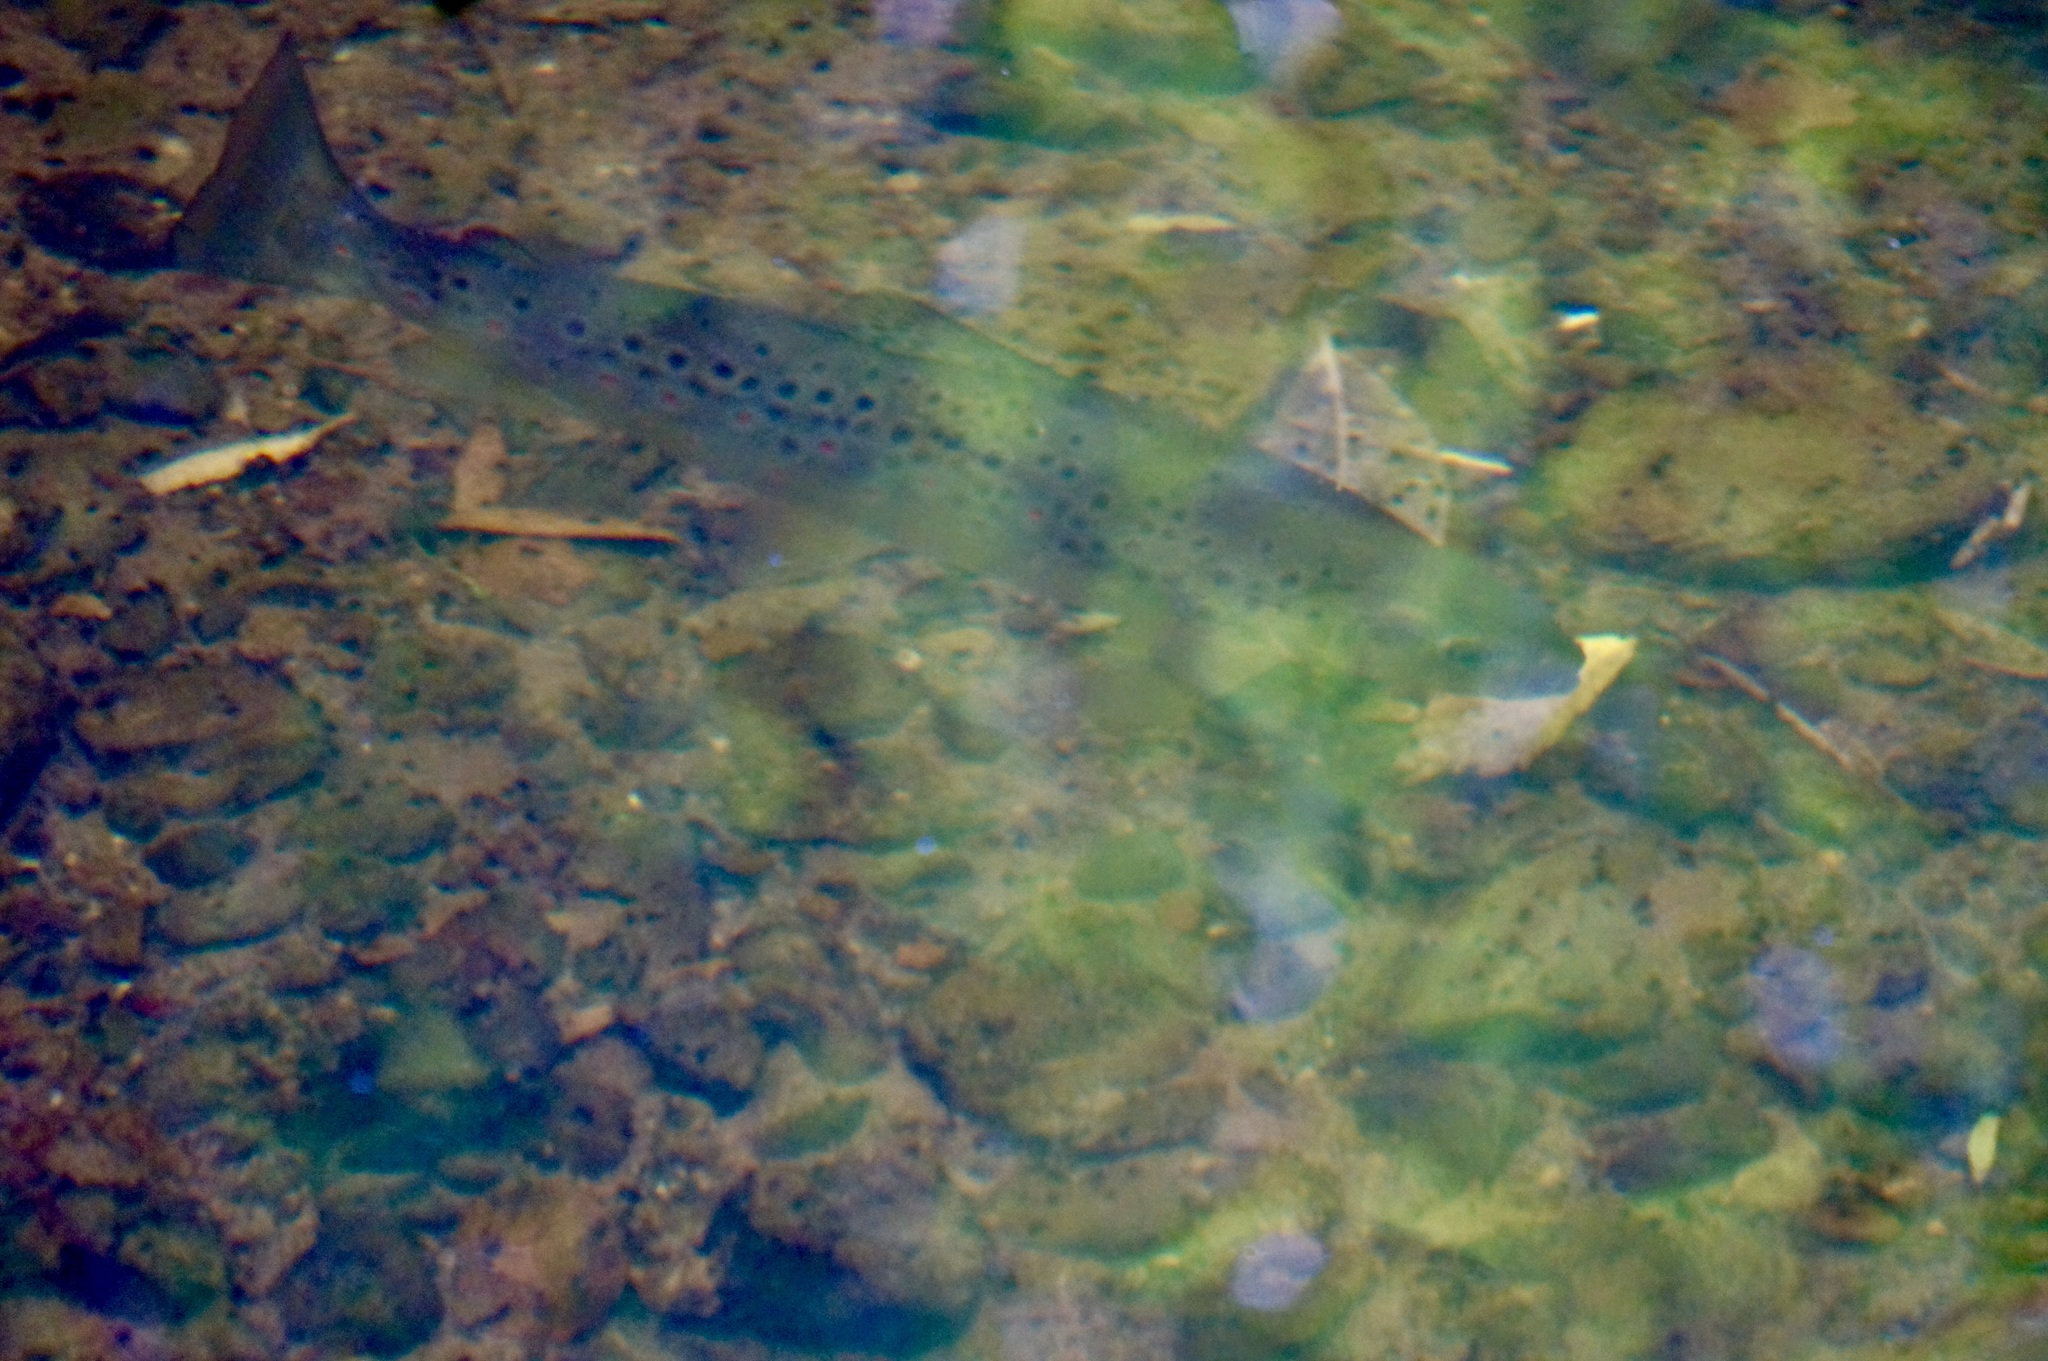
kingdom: Animalia
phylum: Chordata
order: Salmoniformes
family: Salmonidae
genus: Salmo
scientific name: Salmo trutta
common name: Brown trout
